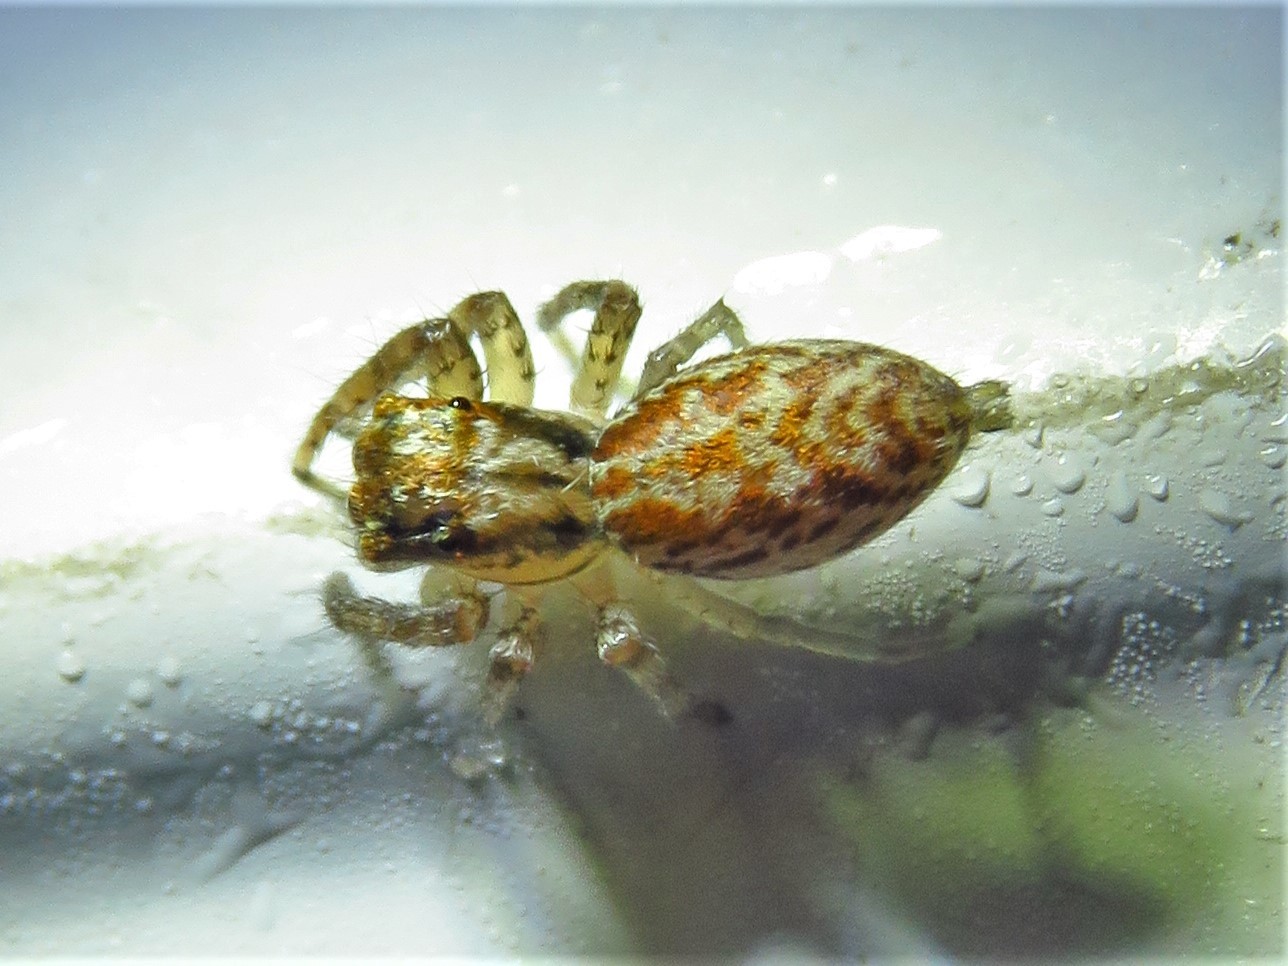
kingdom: Animalia
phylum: Arthropoda
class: Arachnida
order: Araneae
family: Salticidae
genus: Maevia
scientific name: Maevia inclemens
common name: Dimorphic jumper
